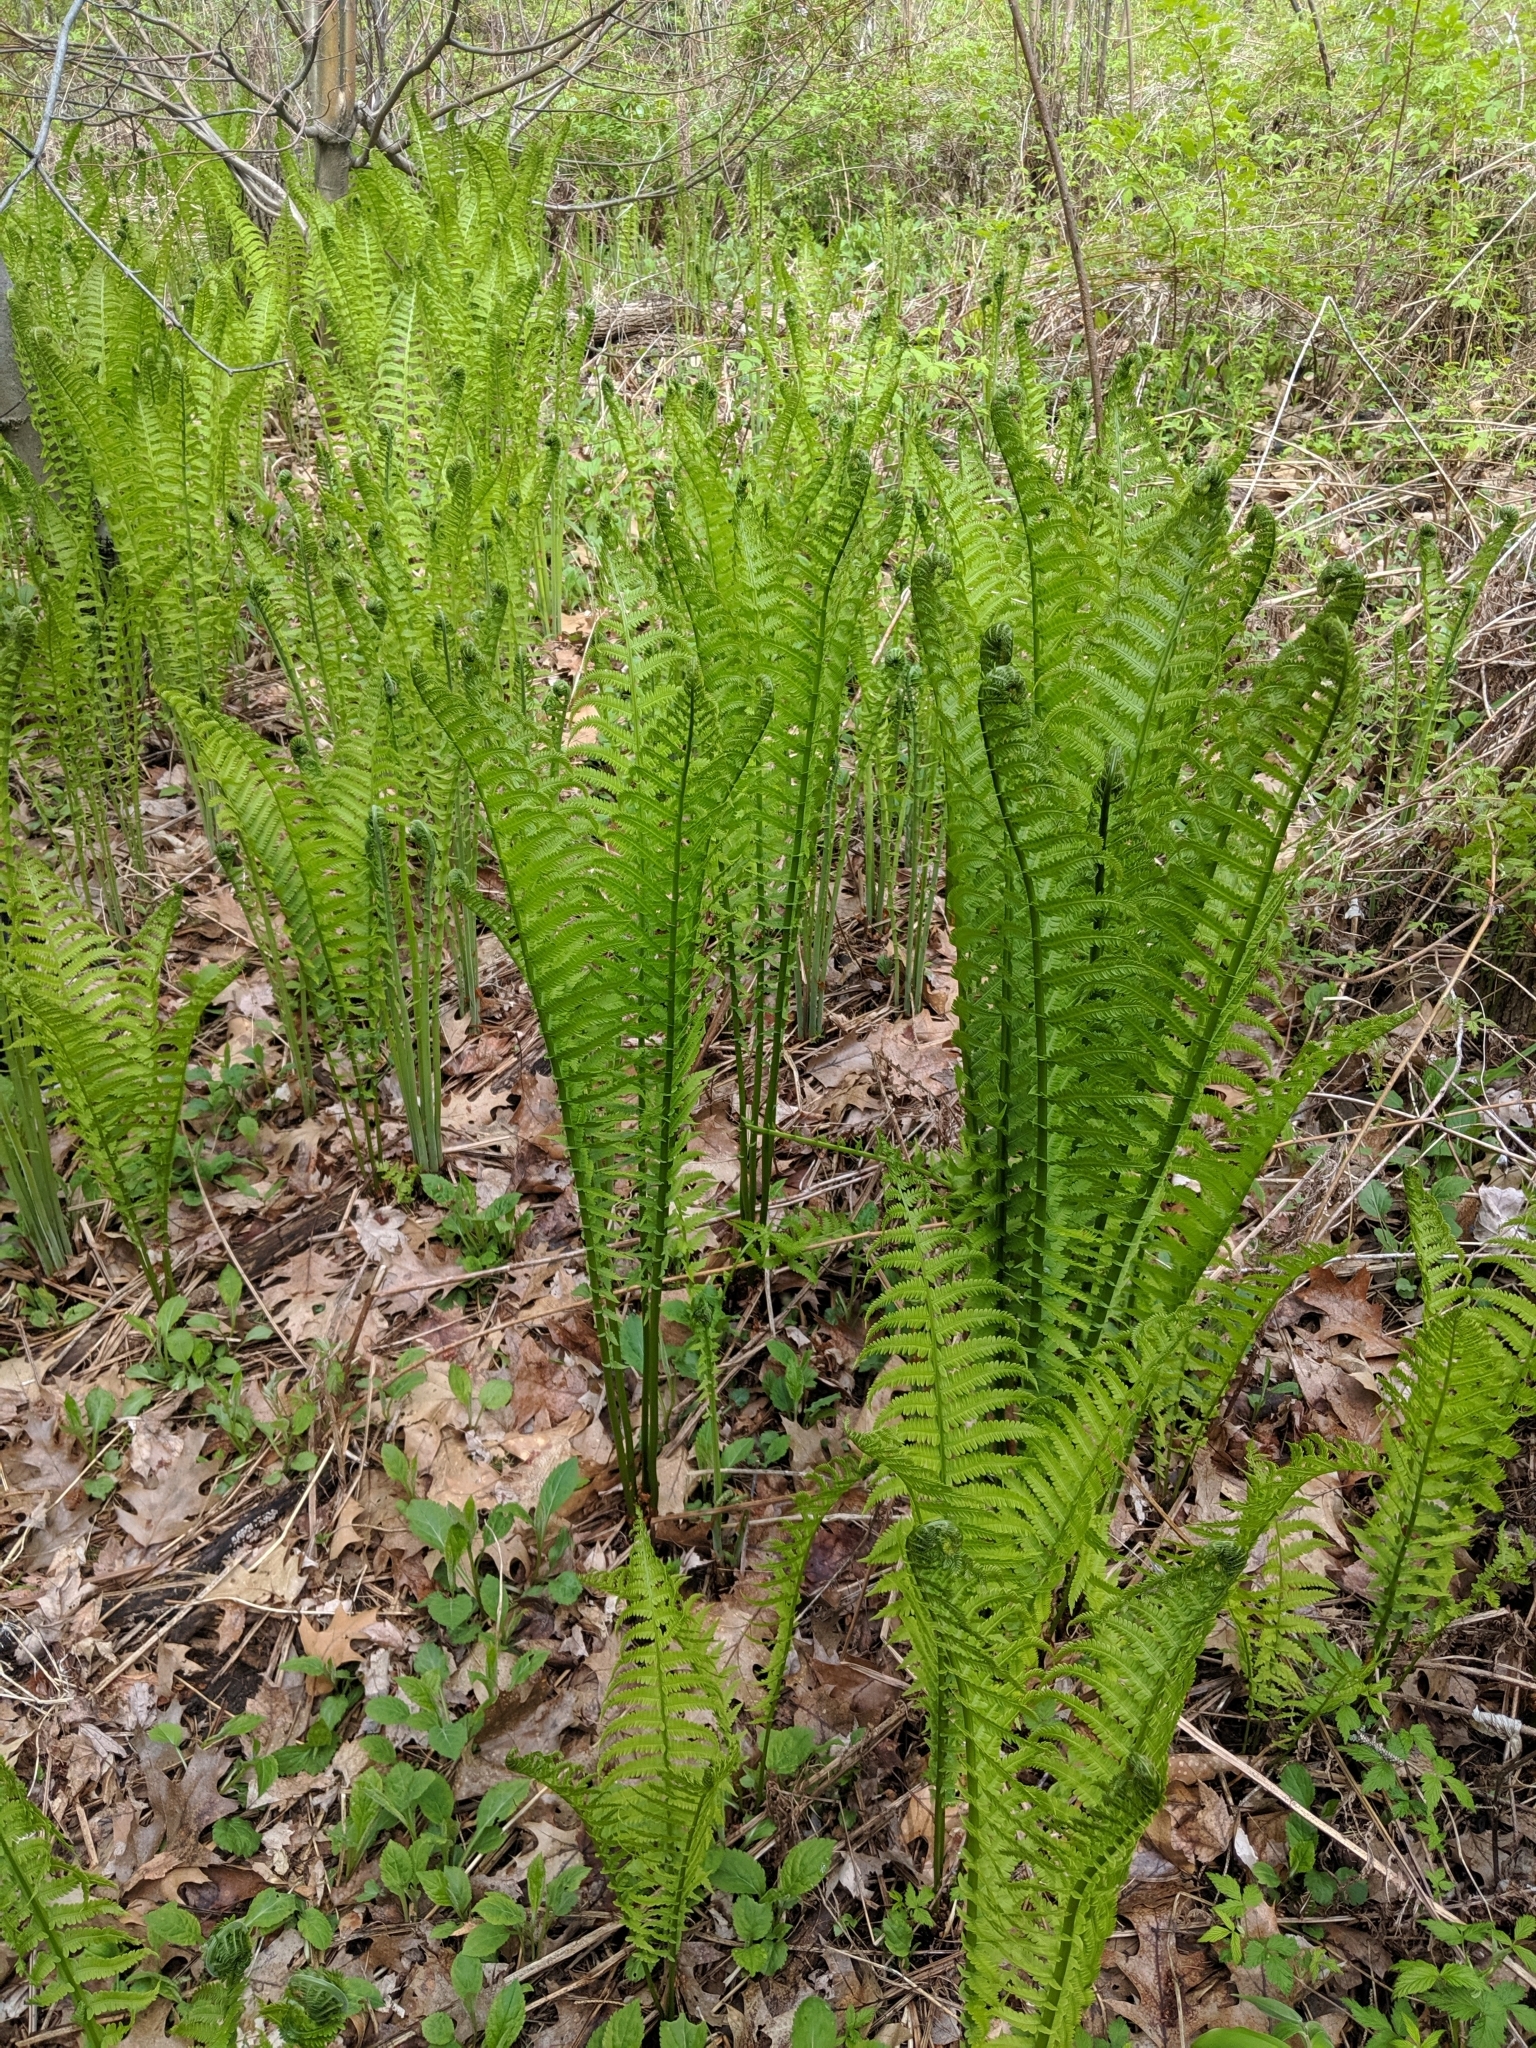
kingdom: Plantae
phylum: Tracheophyta
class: Polypodiopsida
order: Polypodiales
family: Onocleaceae
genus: Matteuccia
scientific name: Matteuccia struthiopteris
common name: Ostrich fern
